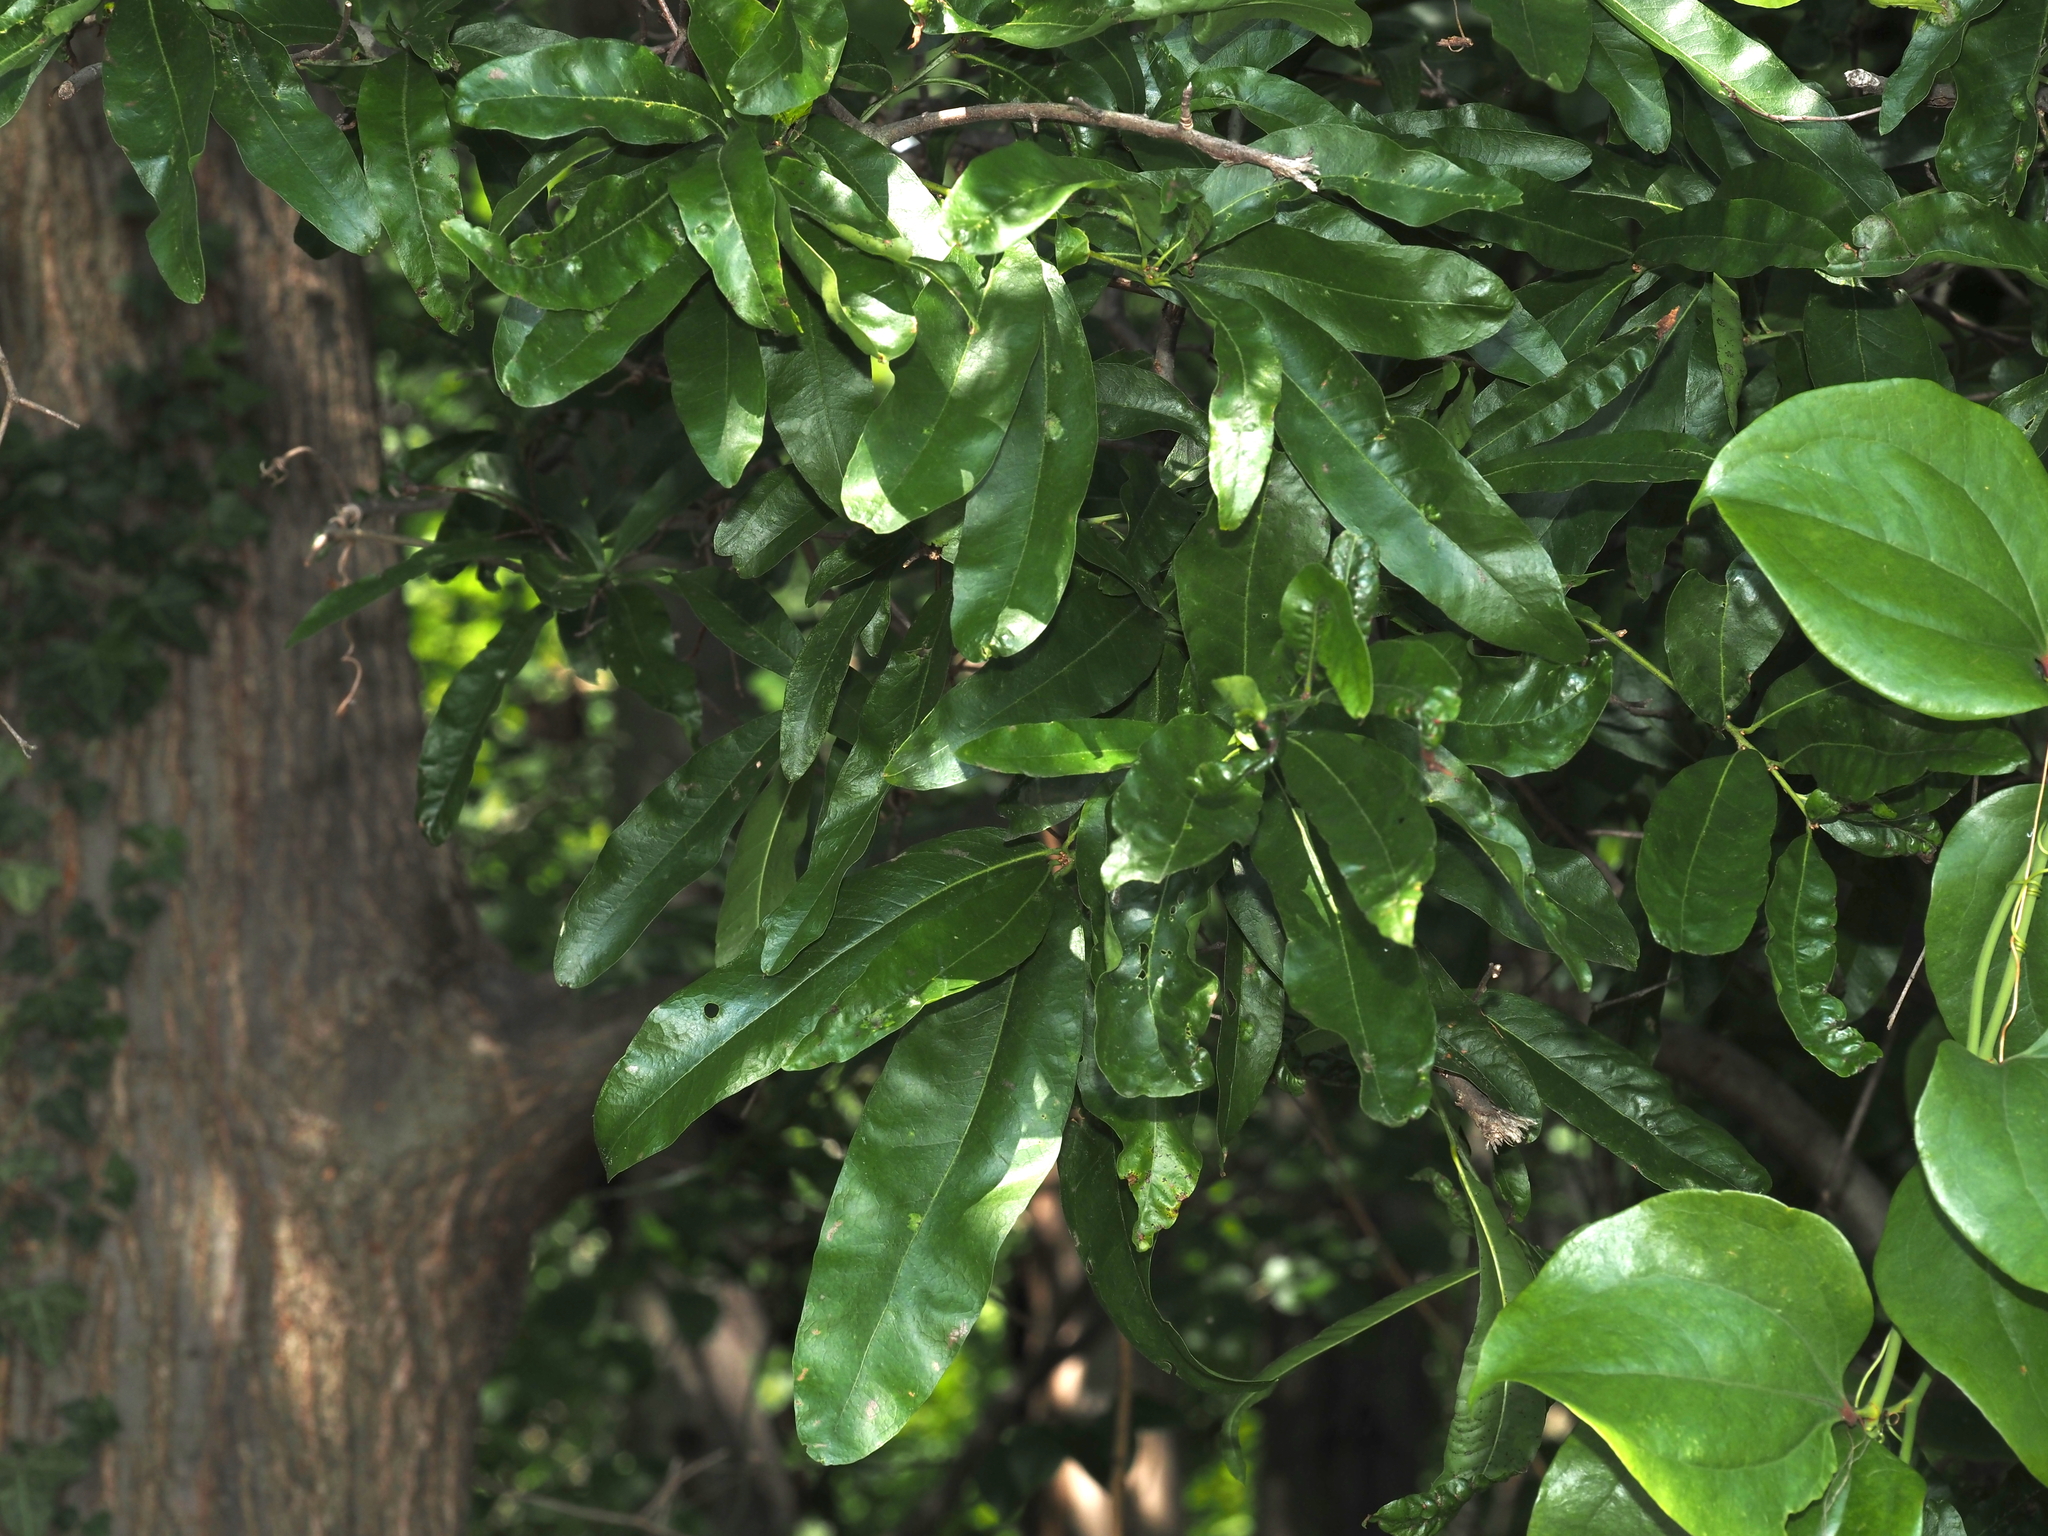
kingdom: Plantae
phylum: Tracheophyta
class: Magnoliopsida
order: Fagales
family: Fagaceae
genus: Quercus
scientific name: Quercus phellos
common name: Willow oak
